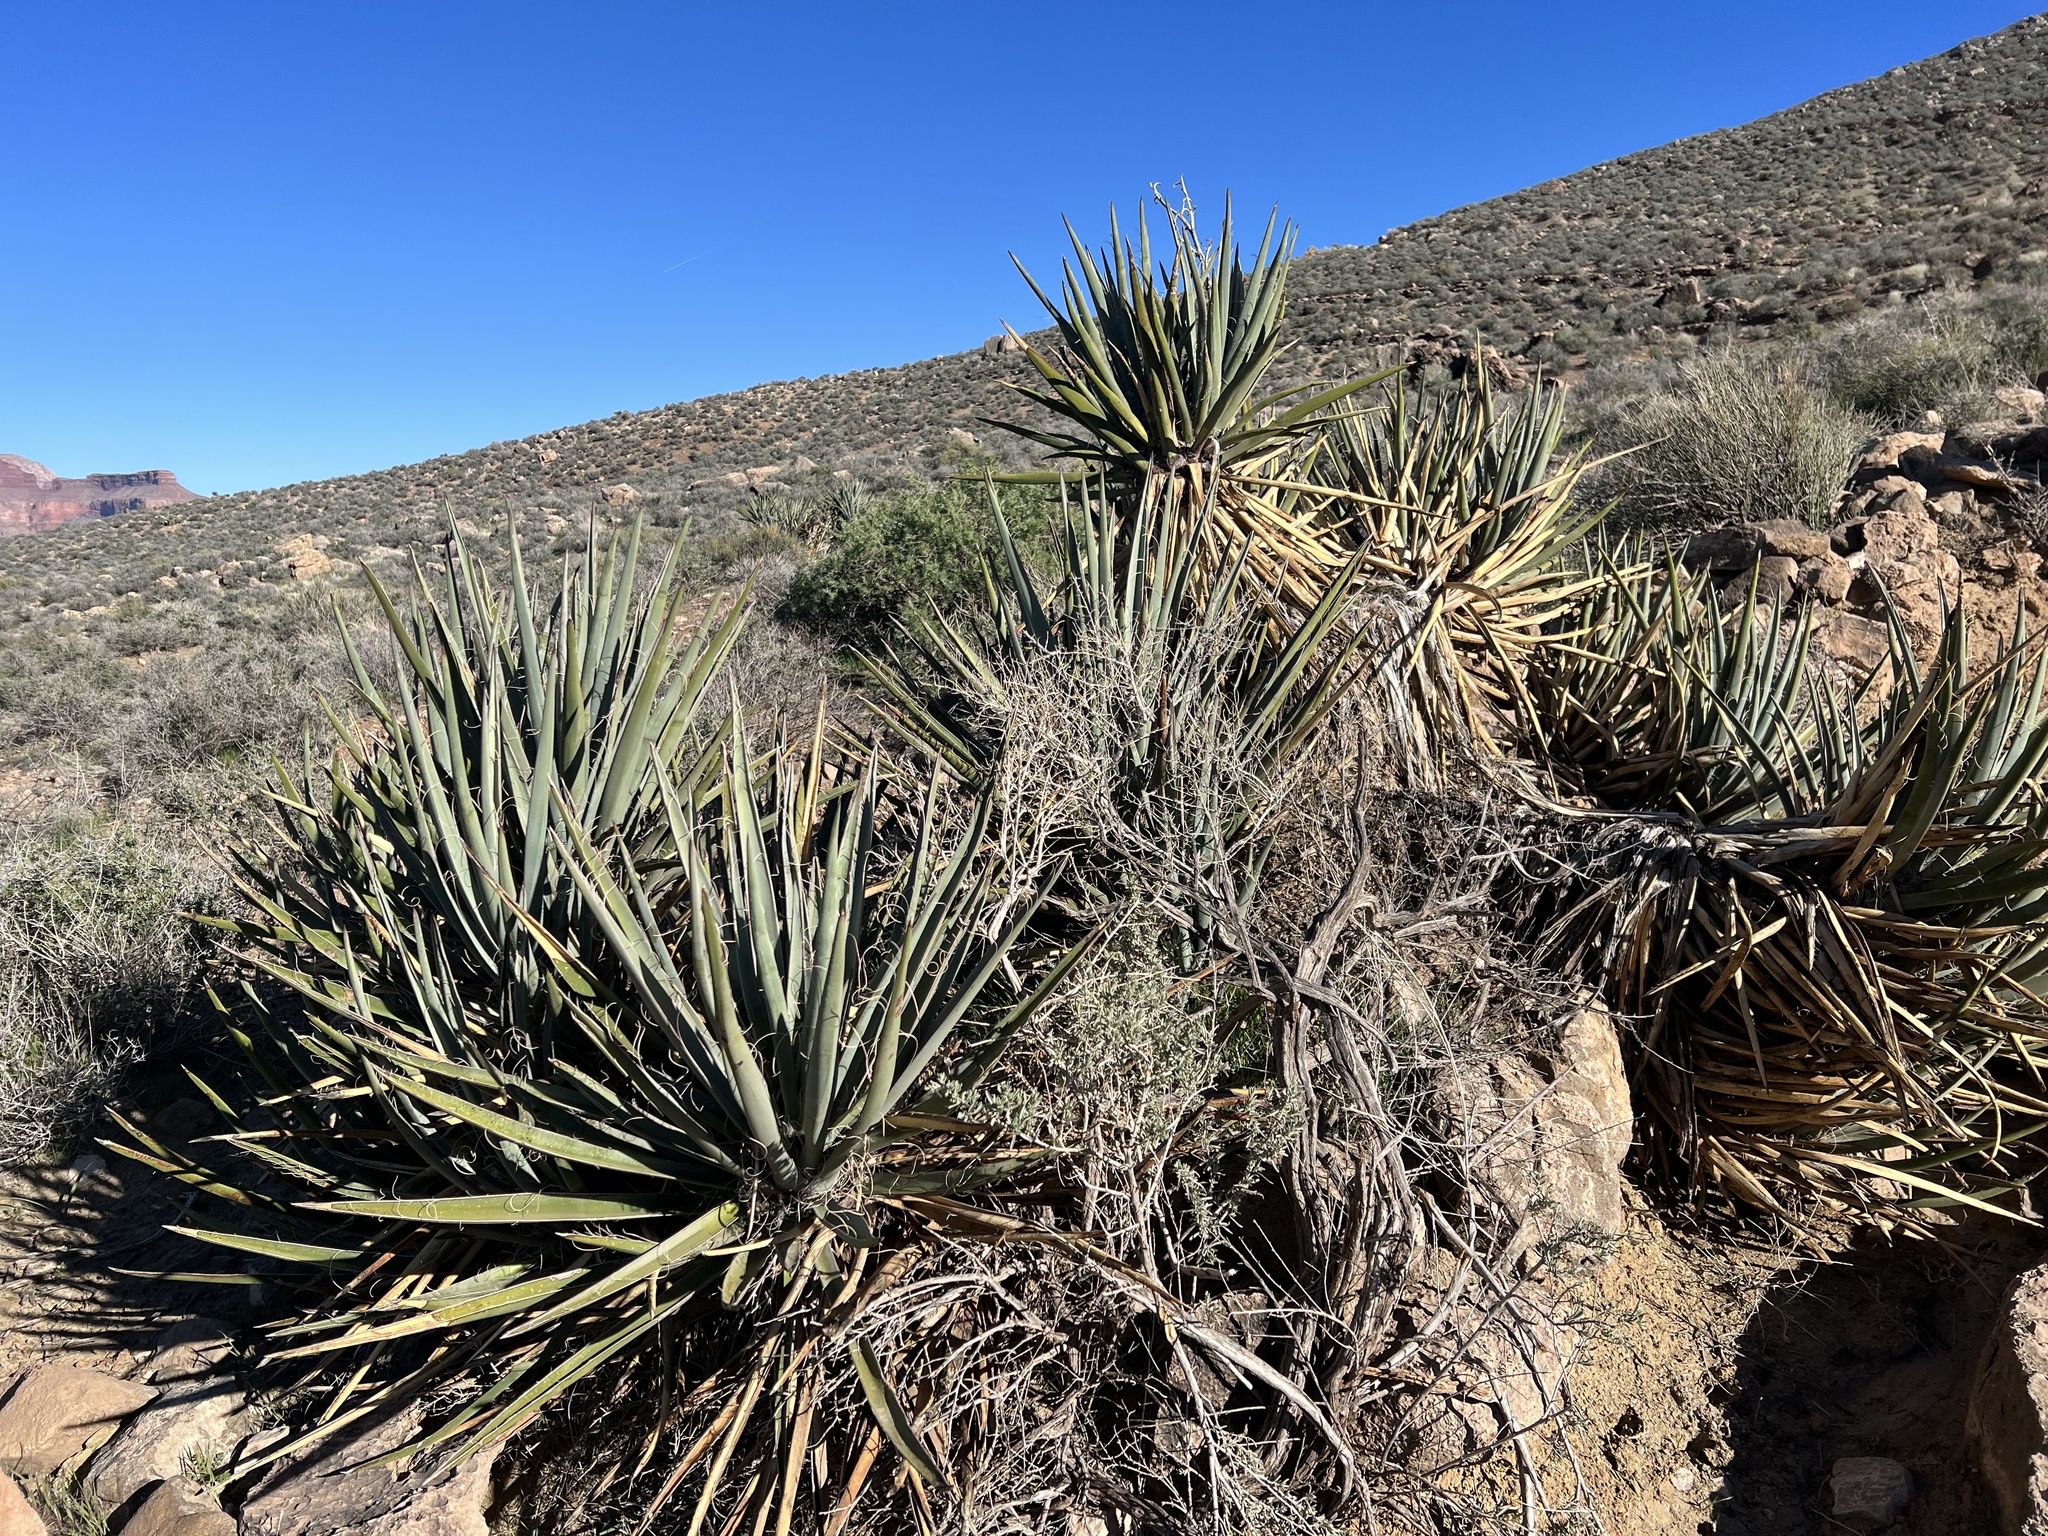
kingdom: Plantae
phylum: Tracheophyta
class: Liliopsida
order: Asparagales
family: Asparagaceae
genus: Yucca
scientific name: Yucca baccata
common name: Banana yucca
